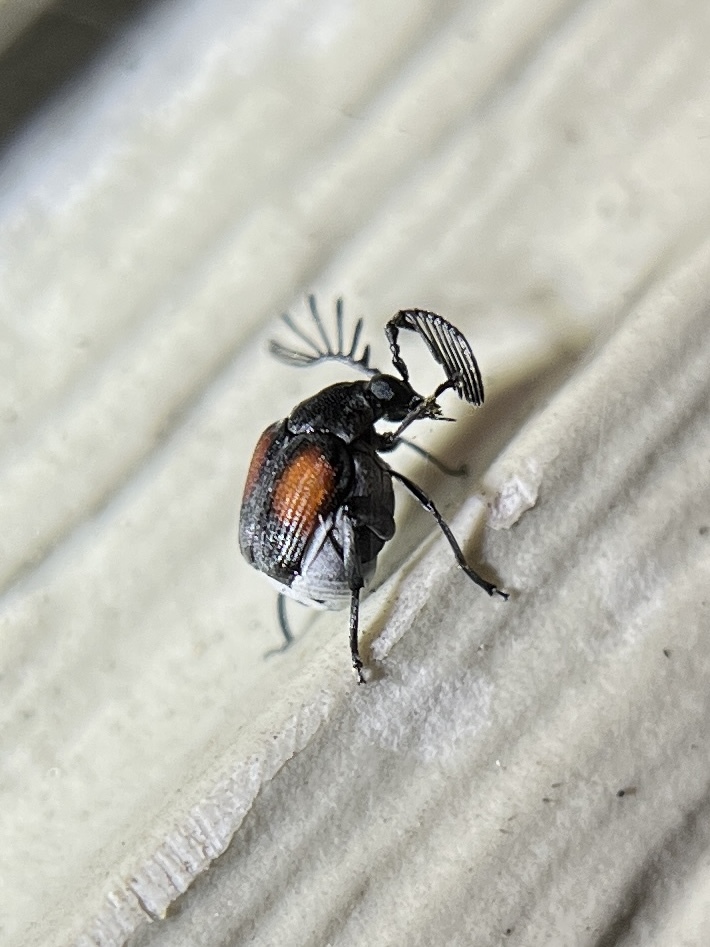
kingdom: Animalia
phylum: Arthropoda
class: Insecta
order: Coleoptera
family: Chrysomelidae
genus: Megacerus
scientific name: Megacerus discoidus
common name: Red megacerus
